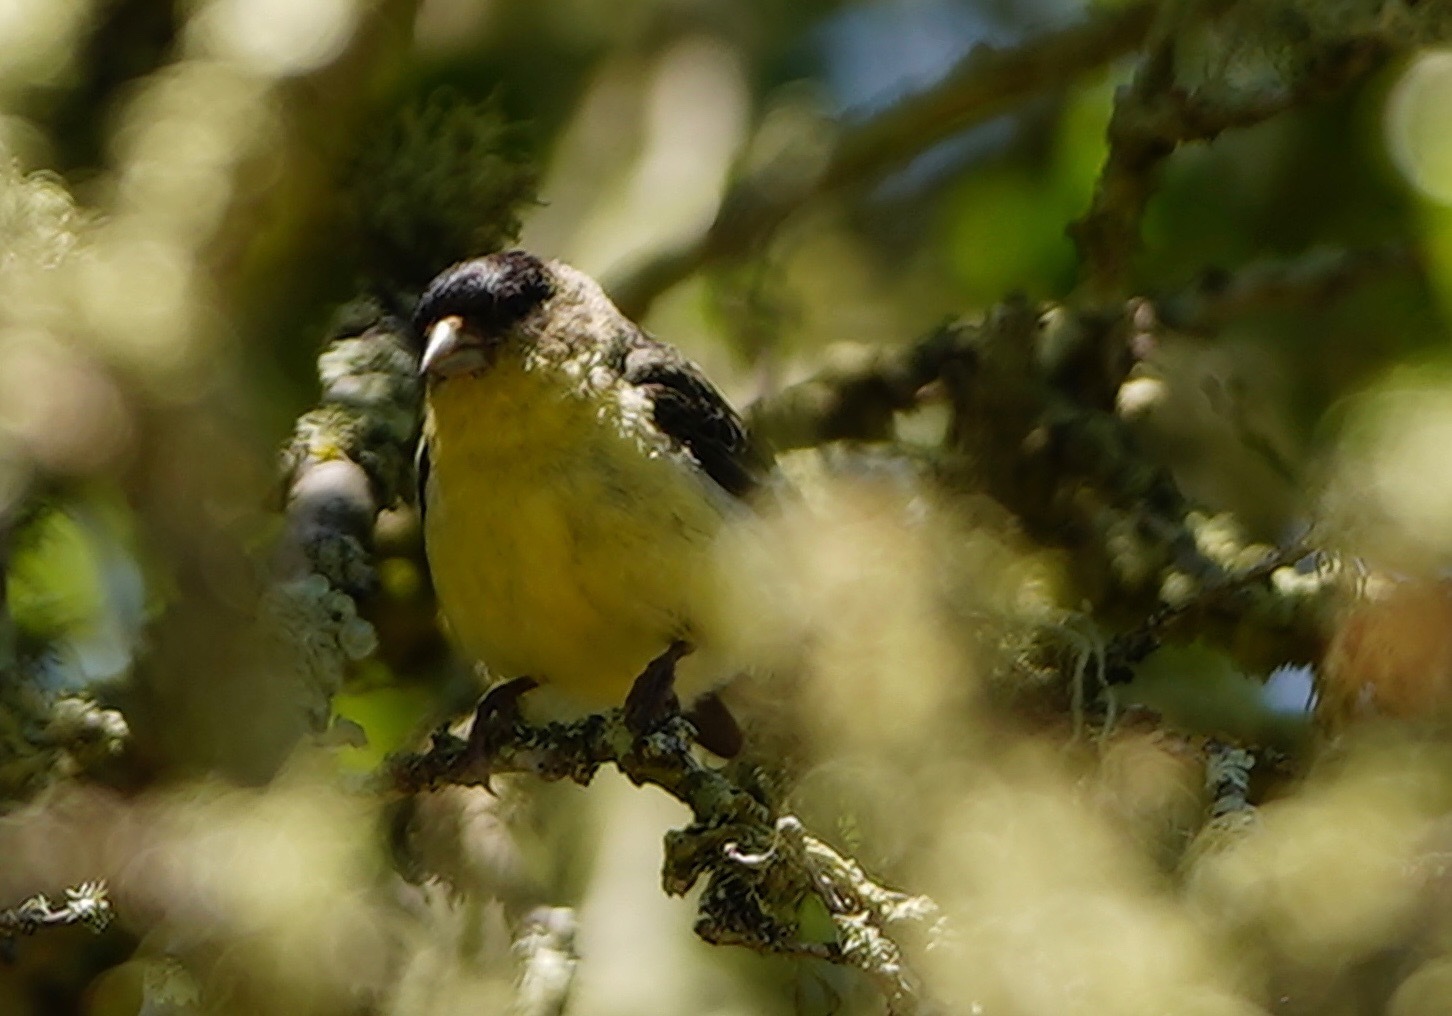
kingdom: Animalia
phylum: Chordata
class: Aves
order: Passeriformes
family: Fringillidae
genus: Spinus
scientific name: Spinus psaltria
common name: Lesser goldfinch
